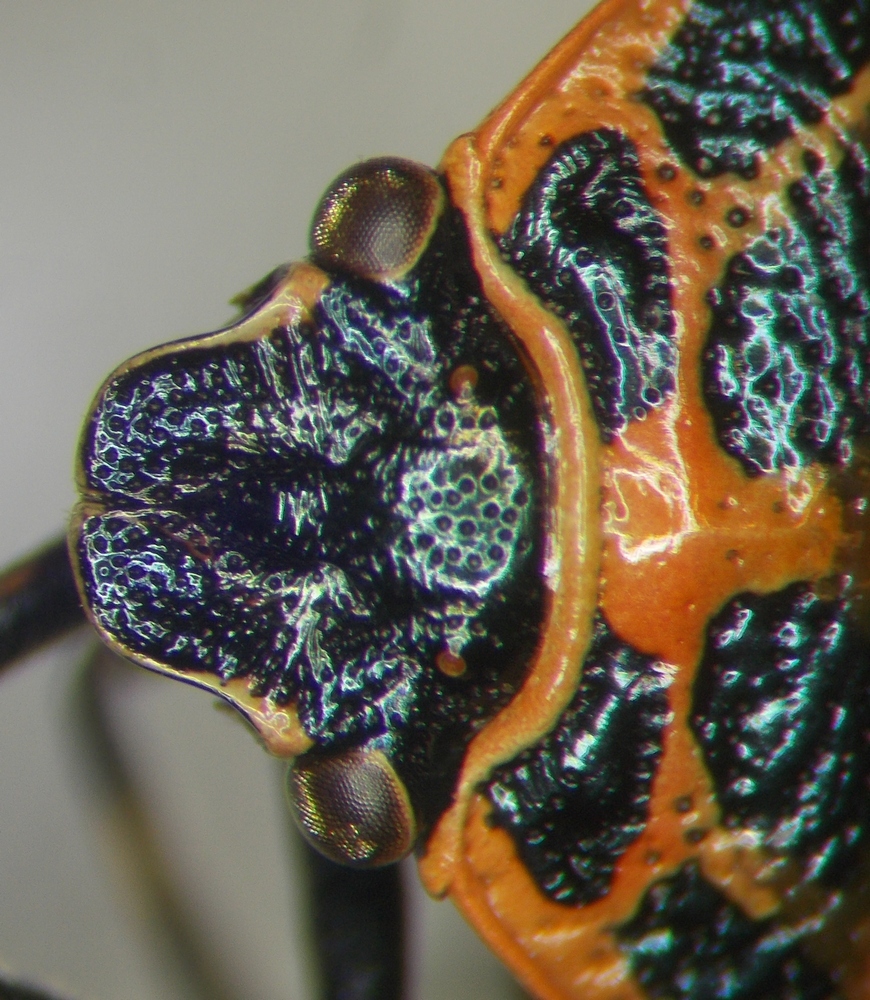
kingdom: Animalia
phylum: Arthropoda
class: Insecta
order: Hemiptera
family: Pentatomidae
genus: Eurydema
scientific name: Eurydema ornata
